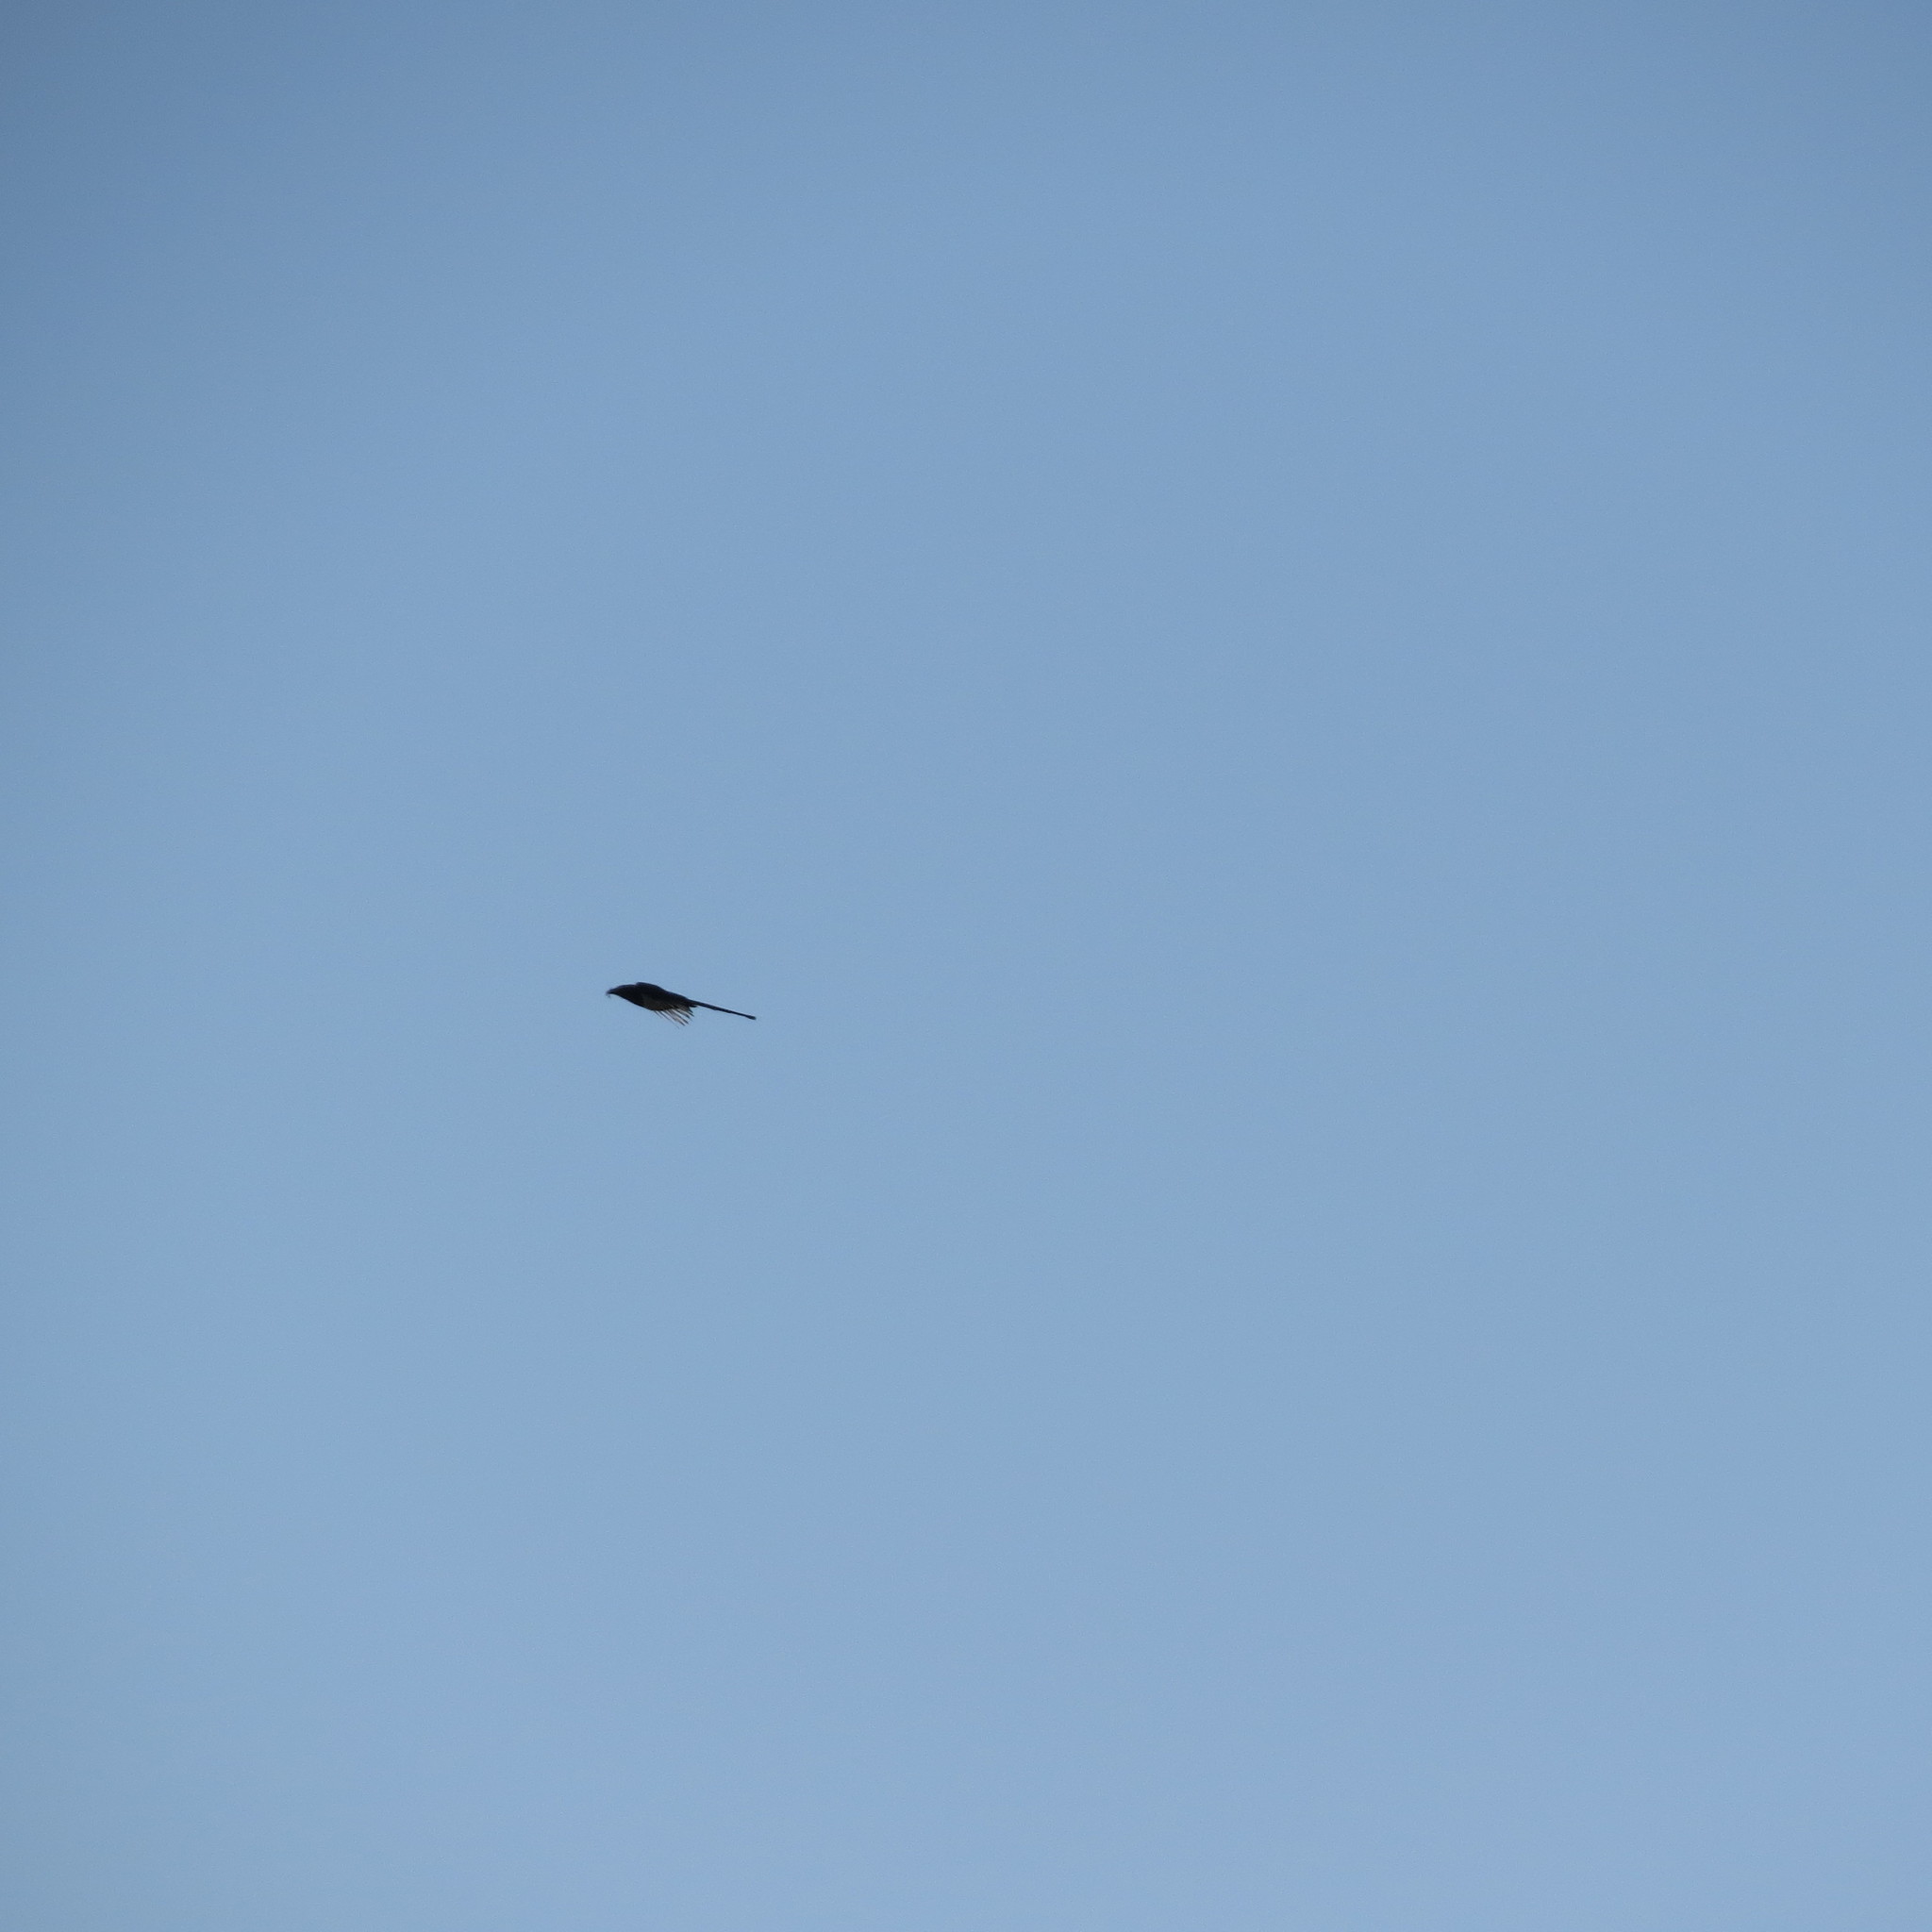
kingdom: Animalia
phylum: Chordata
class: Aves
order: Passeriformes
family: Corvidae
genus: Pica
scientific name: Pica pica
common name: Eurasian magpie
